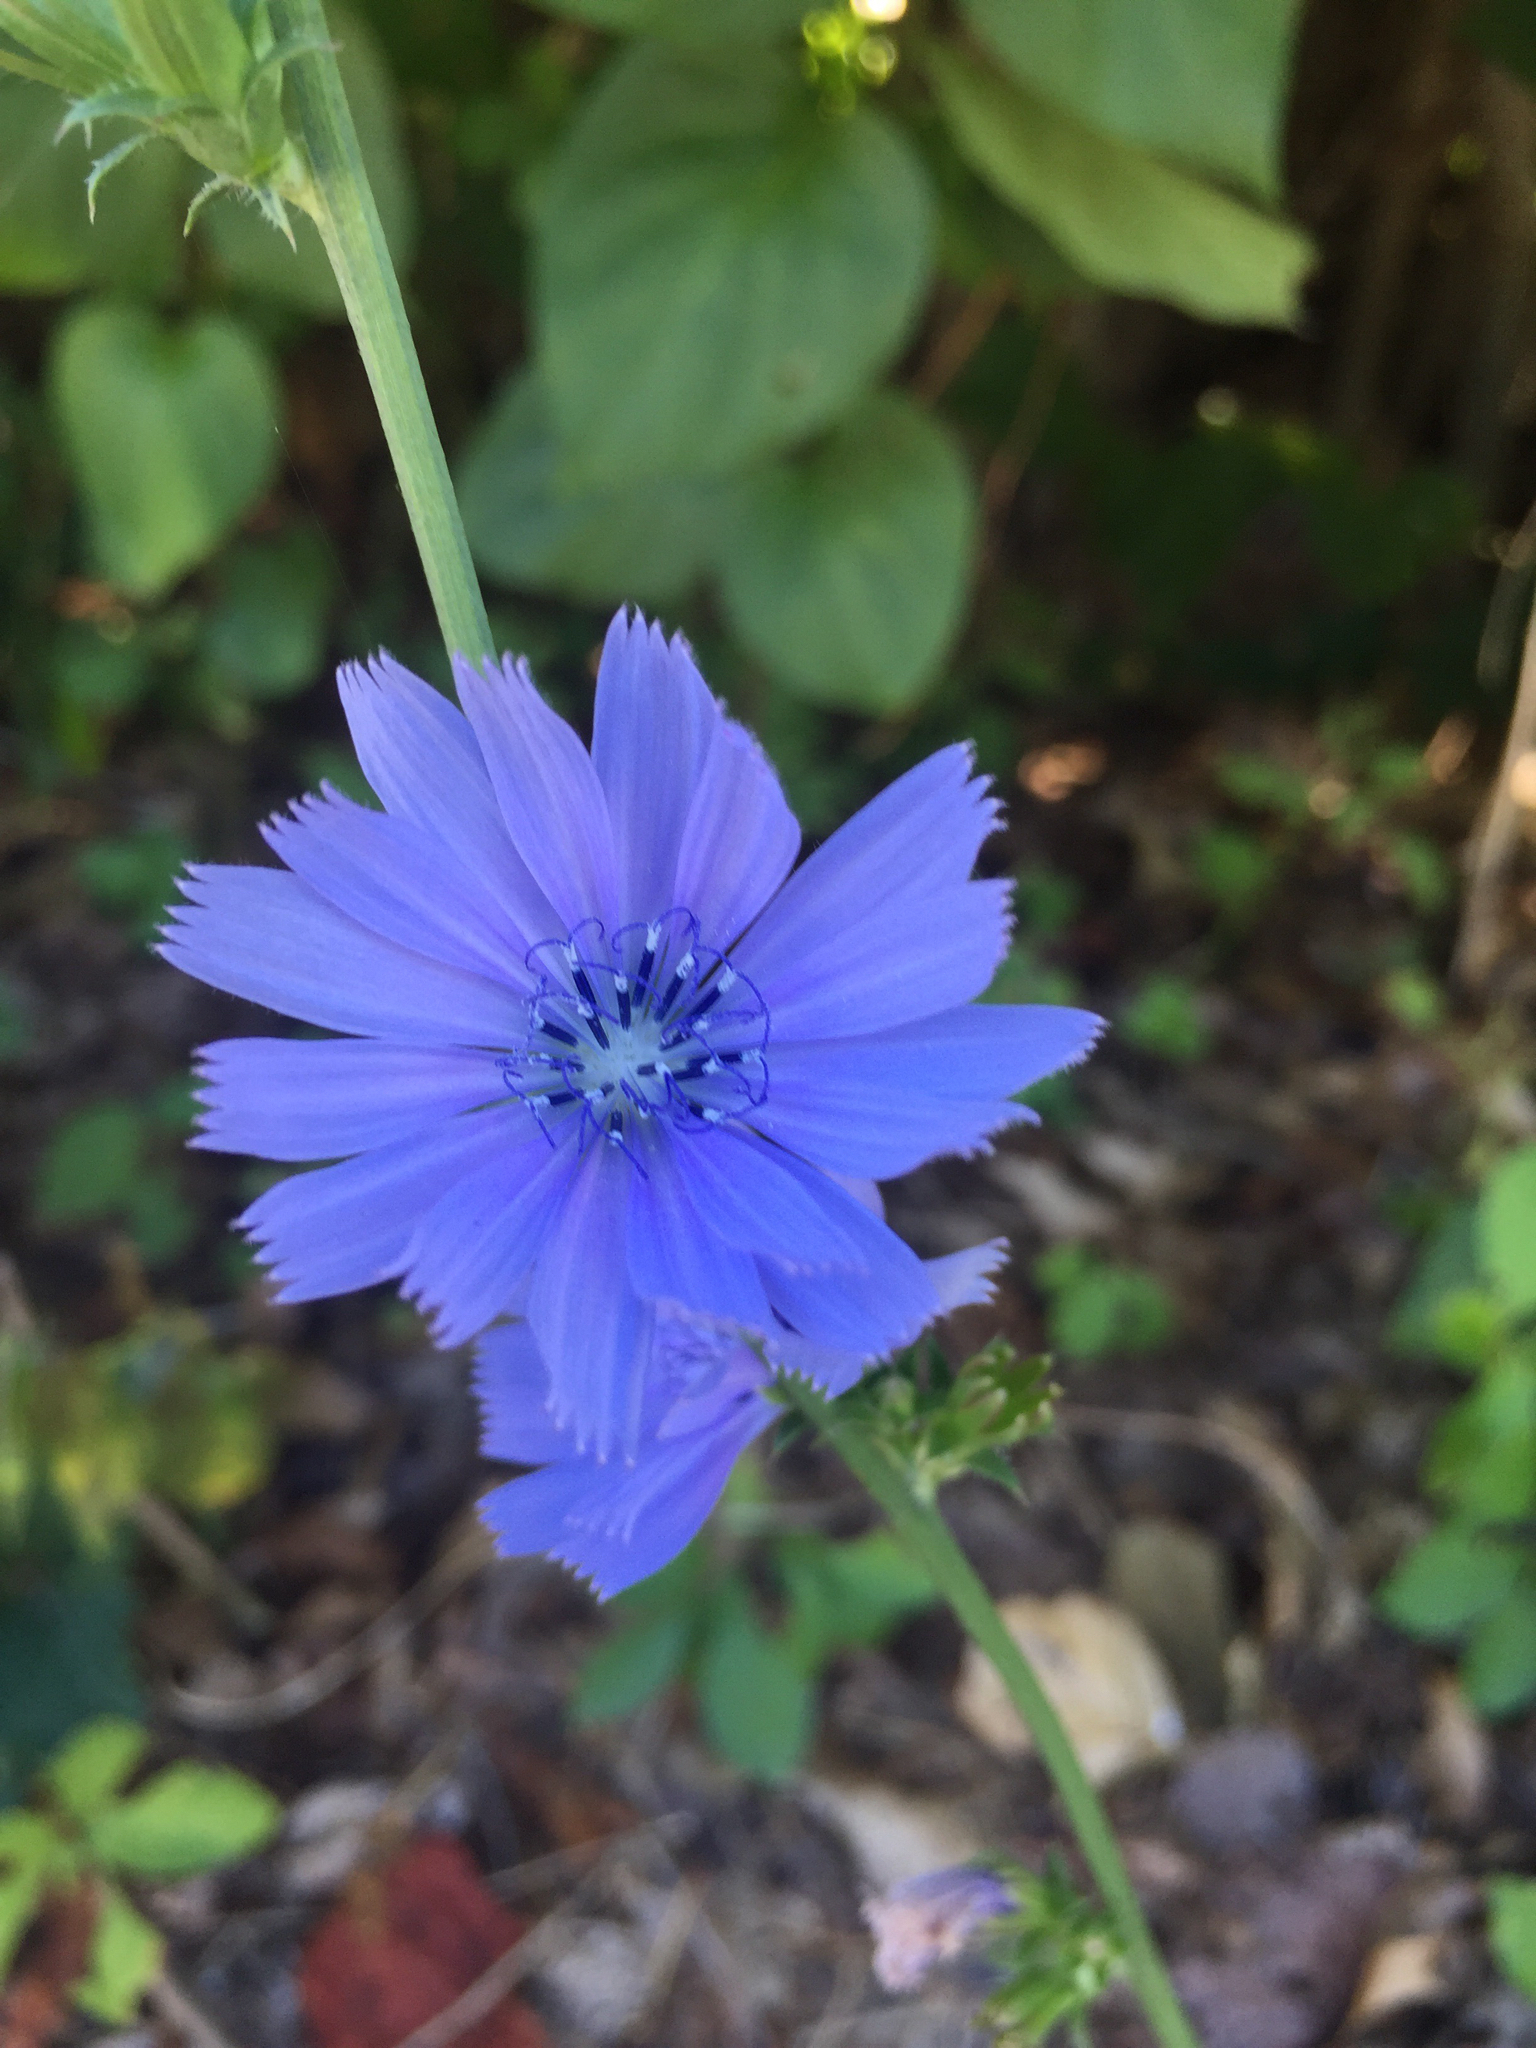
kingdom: Plantae
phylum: Tracheophyta
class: Magnoliopsida
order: Asterales
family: Asteraceae
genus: Cichorium
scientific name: Cichorium intybus
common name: Chicory
